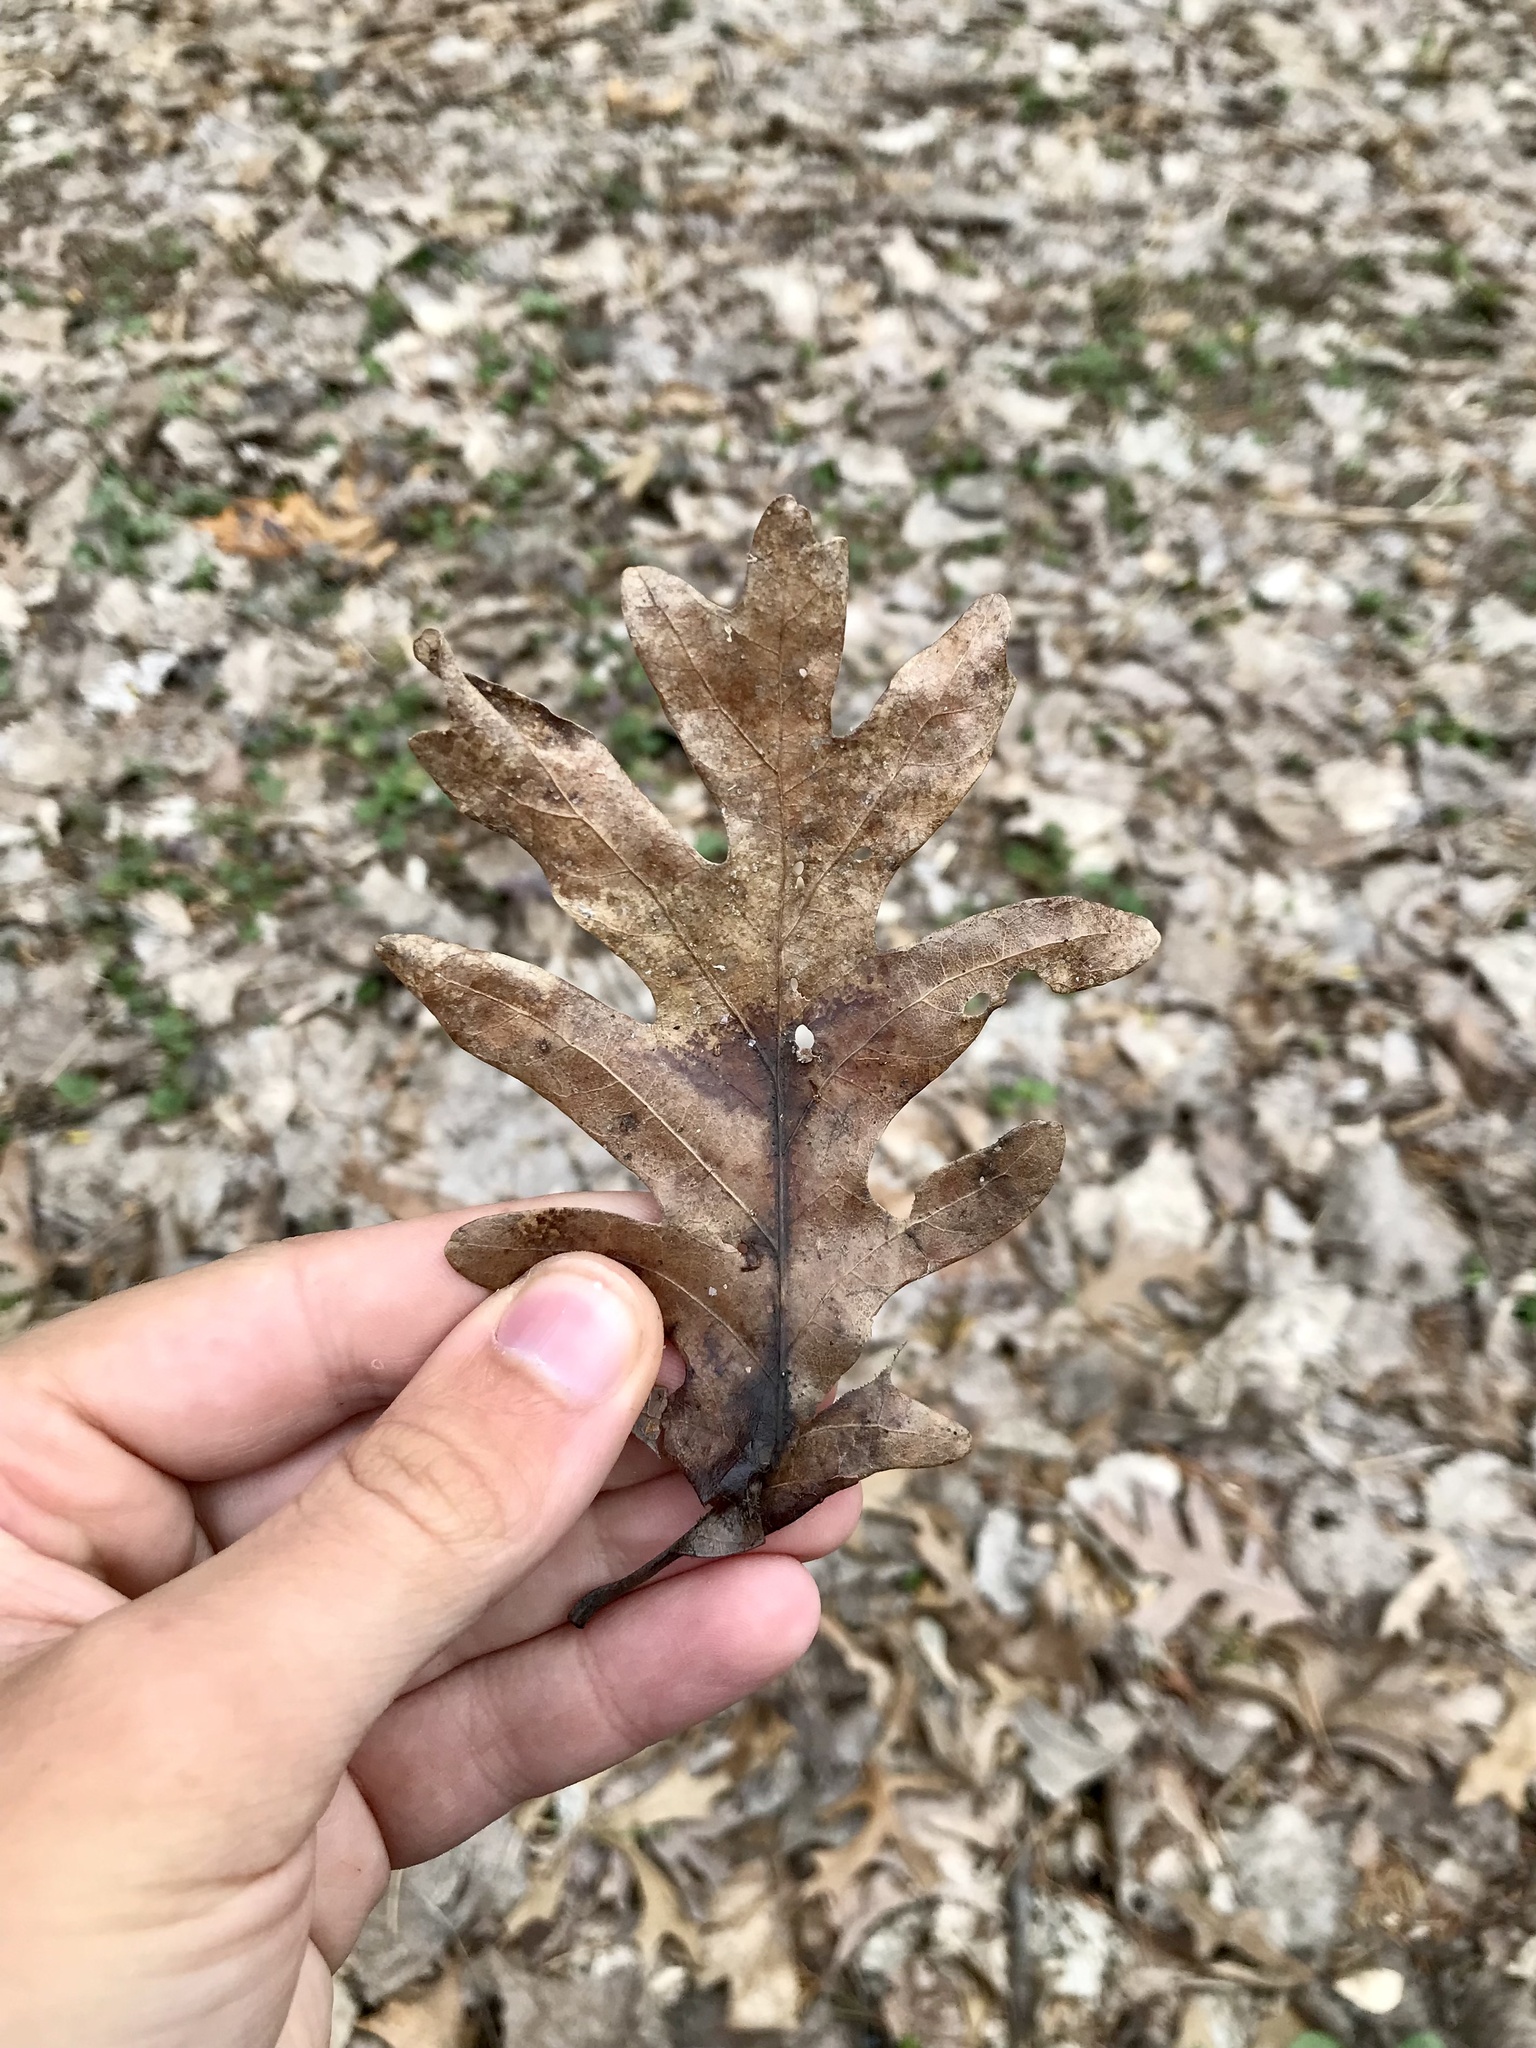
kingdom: Plantae
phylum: Tracheophyta
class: Magnoliopsida
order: Fagales
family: Fagaceae
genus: Quercus
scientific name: Quercus alba
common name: White oak
